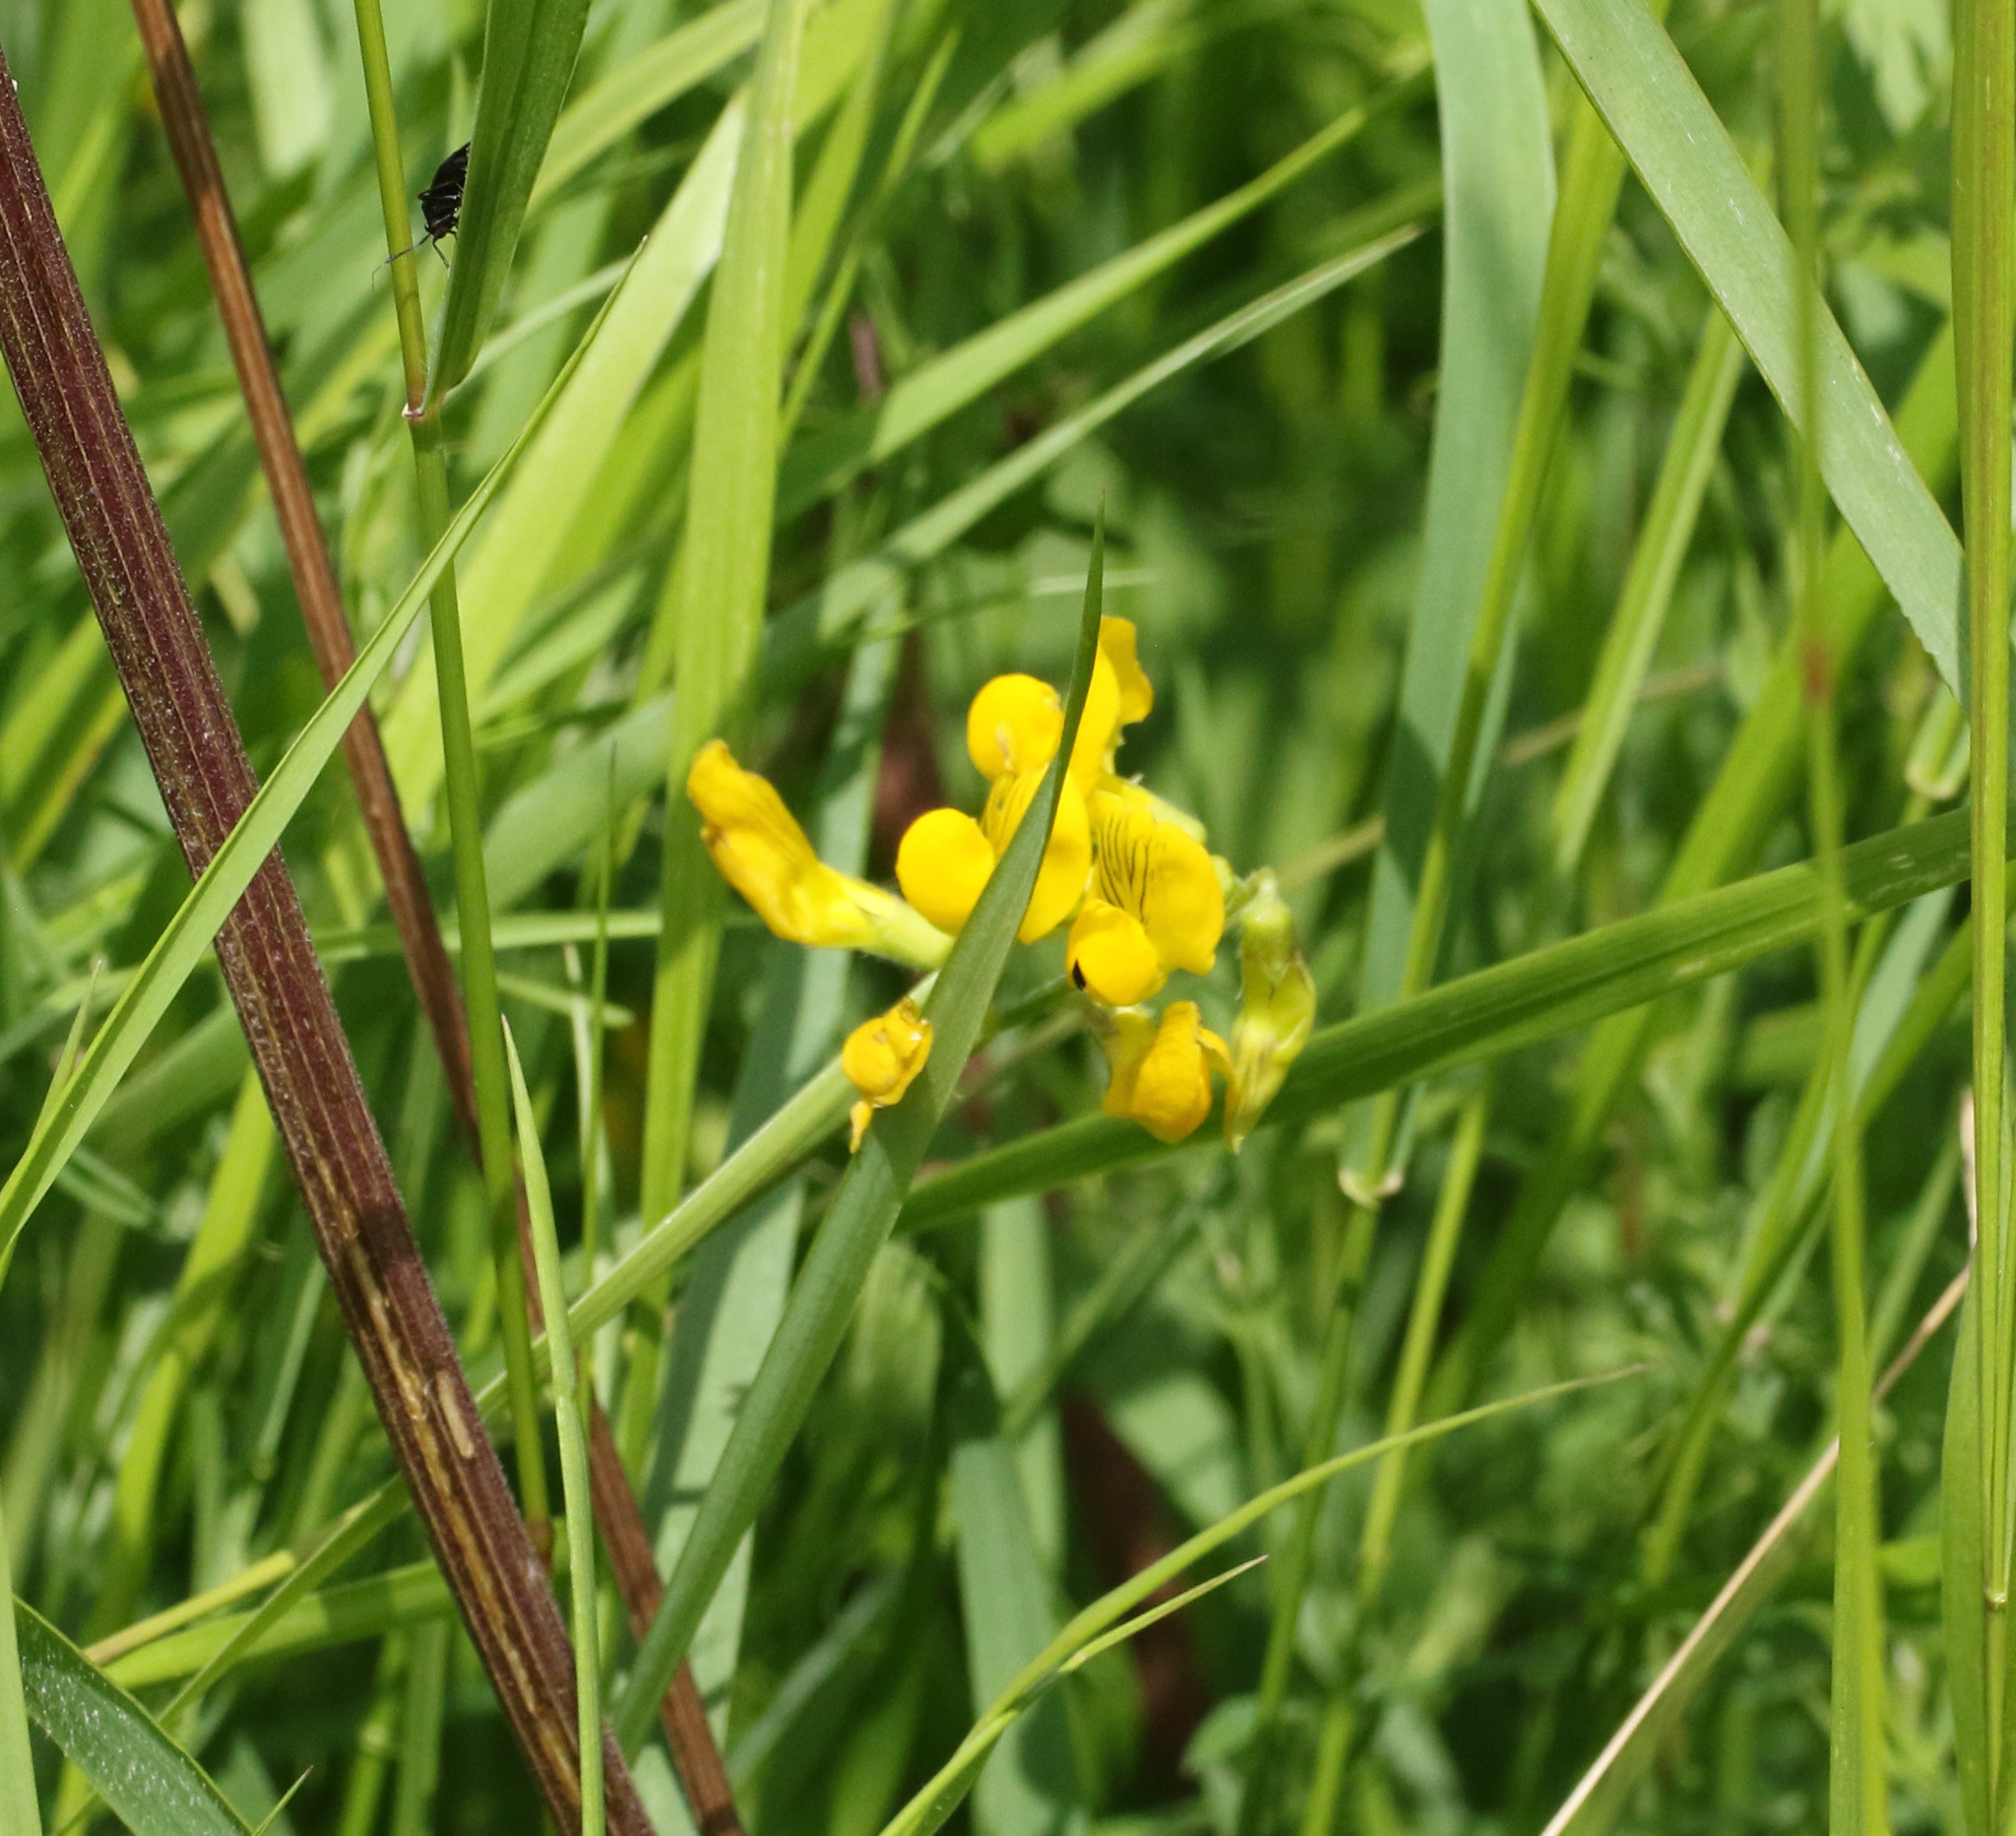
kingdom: Plantae
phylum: Tracheophyta
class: Magnoliopsida
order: Fabales
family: Fabaceae
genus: Lathyrus
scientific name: Lathyrus pratensis
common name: Meadow vetchling
